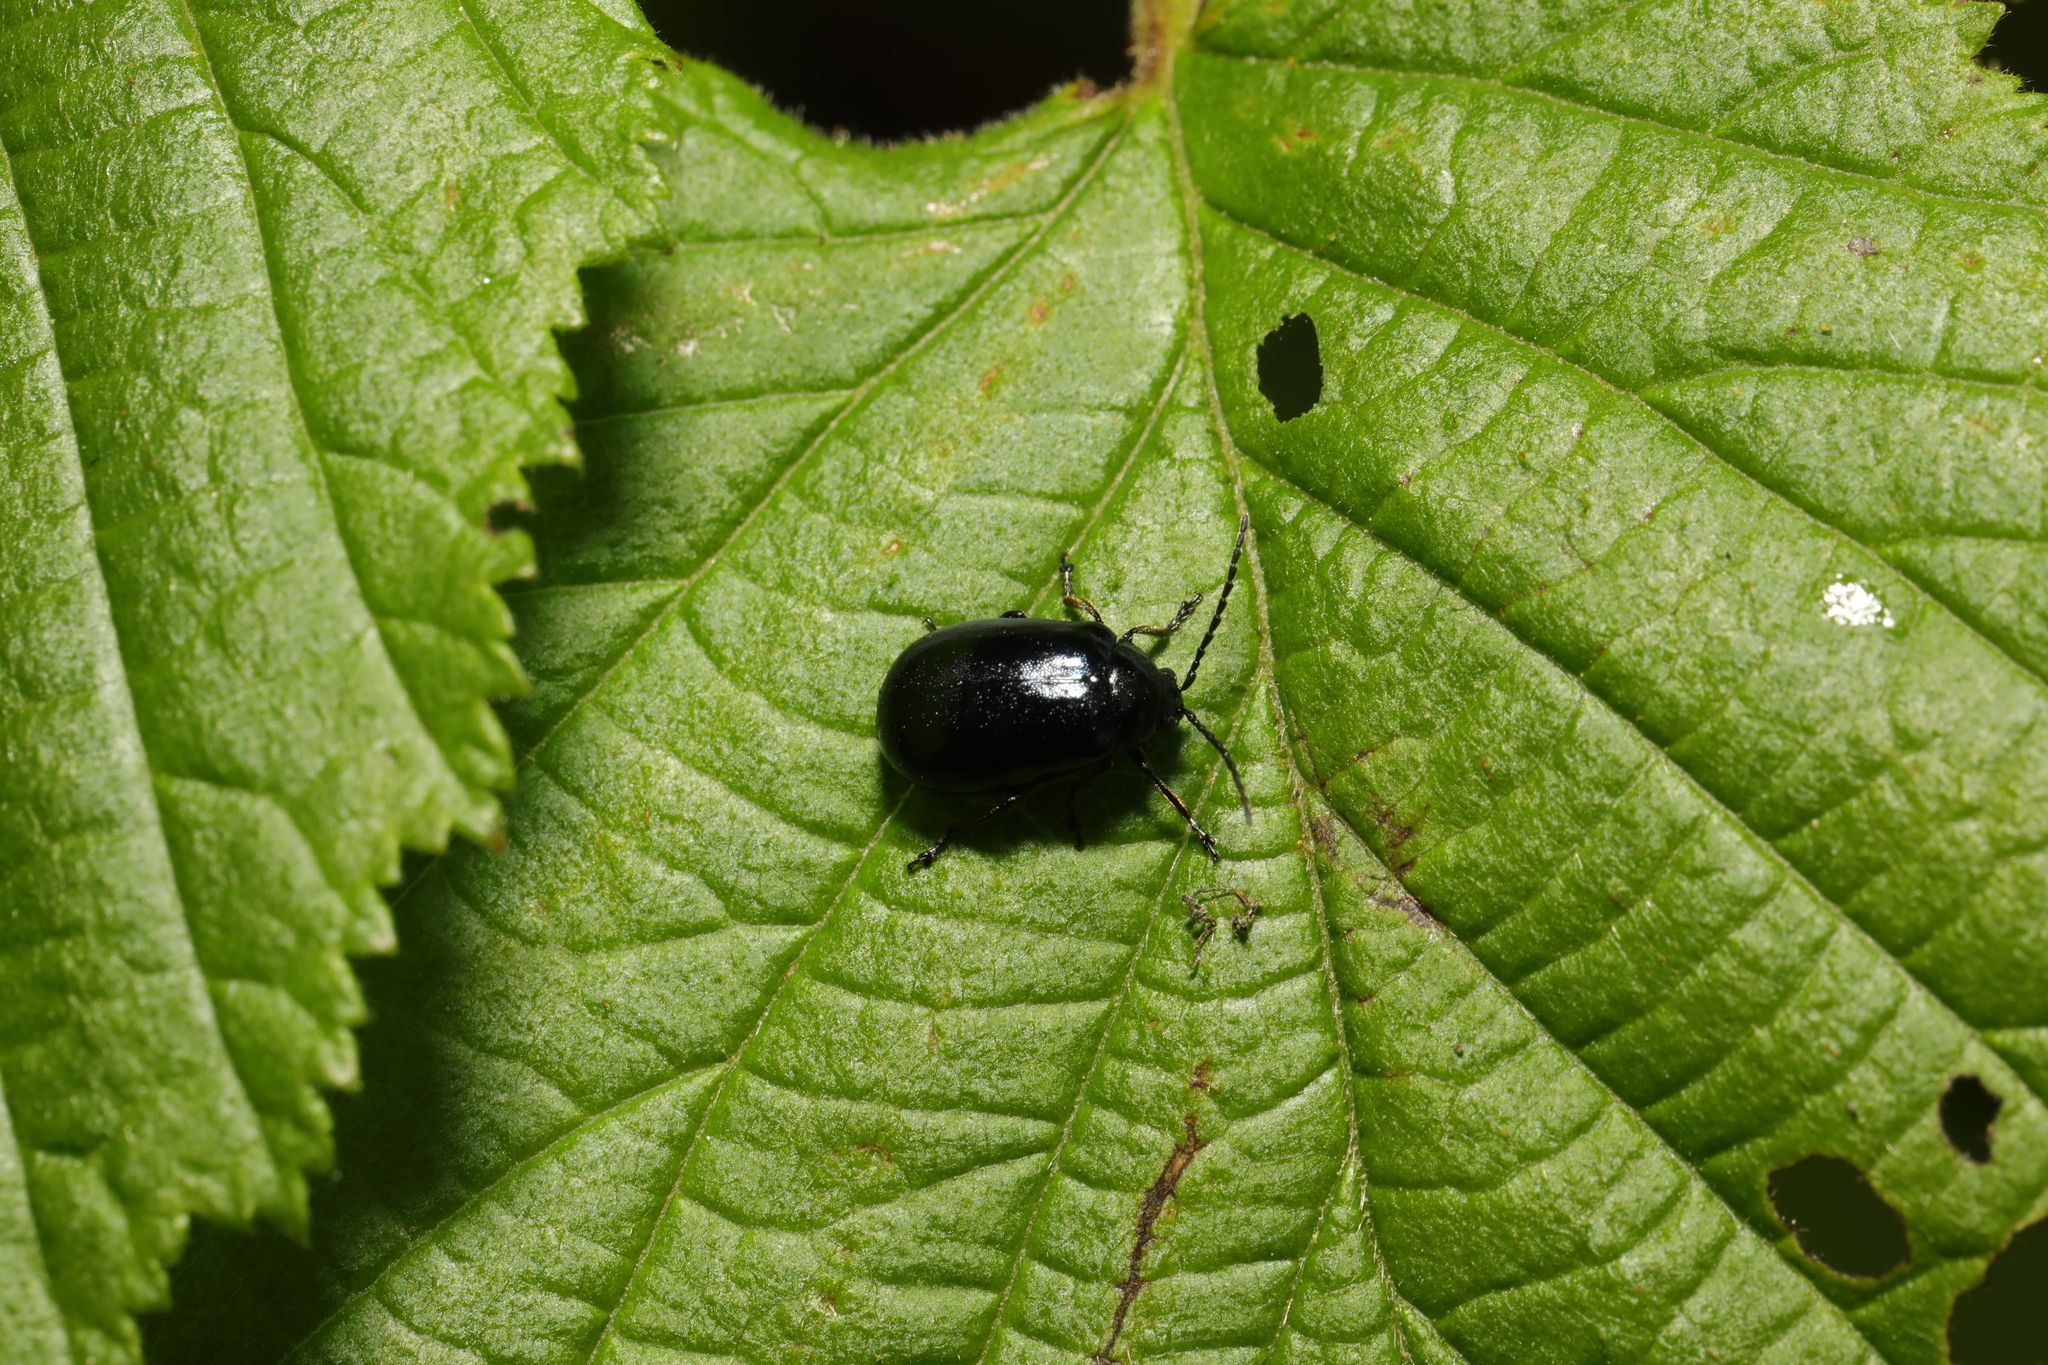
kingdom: Animalia
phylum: Arthropoda
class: Insecta
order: Coleoptera
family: Chrysomelidae
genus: Agelastica
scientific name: Agelastica alni
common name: Alder leaf beetle
